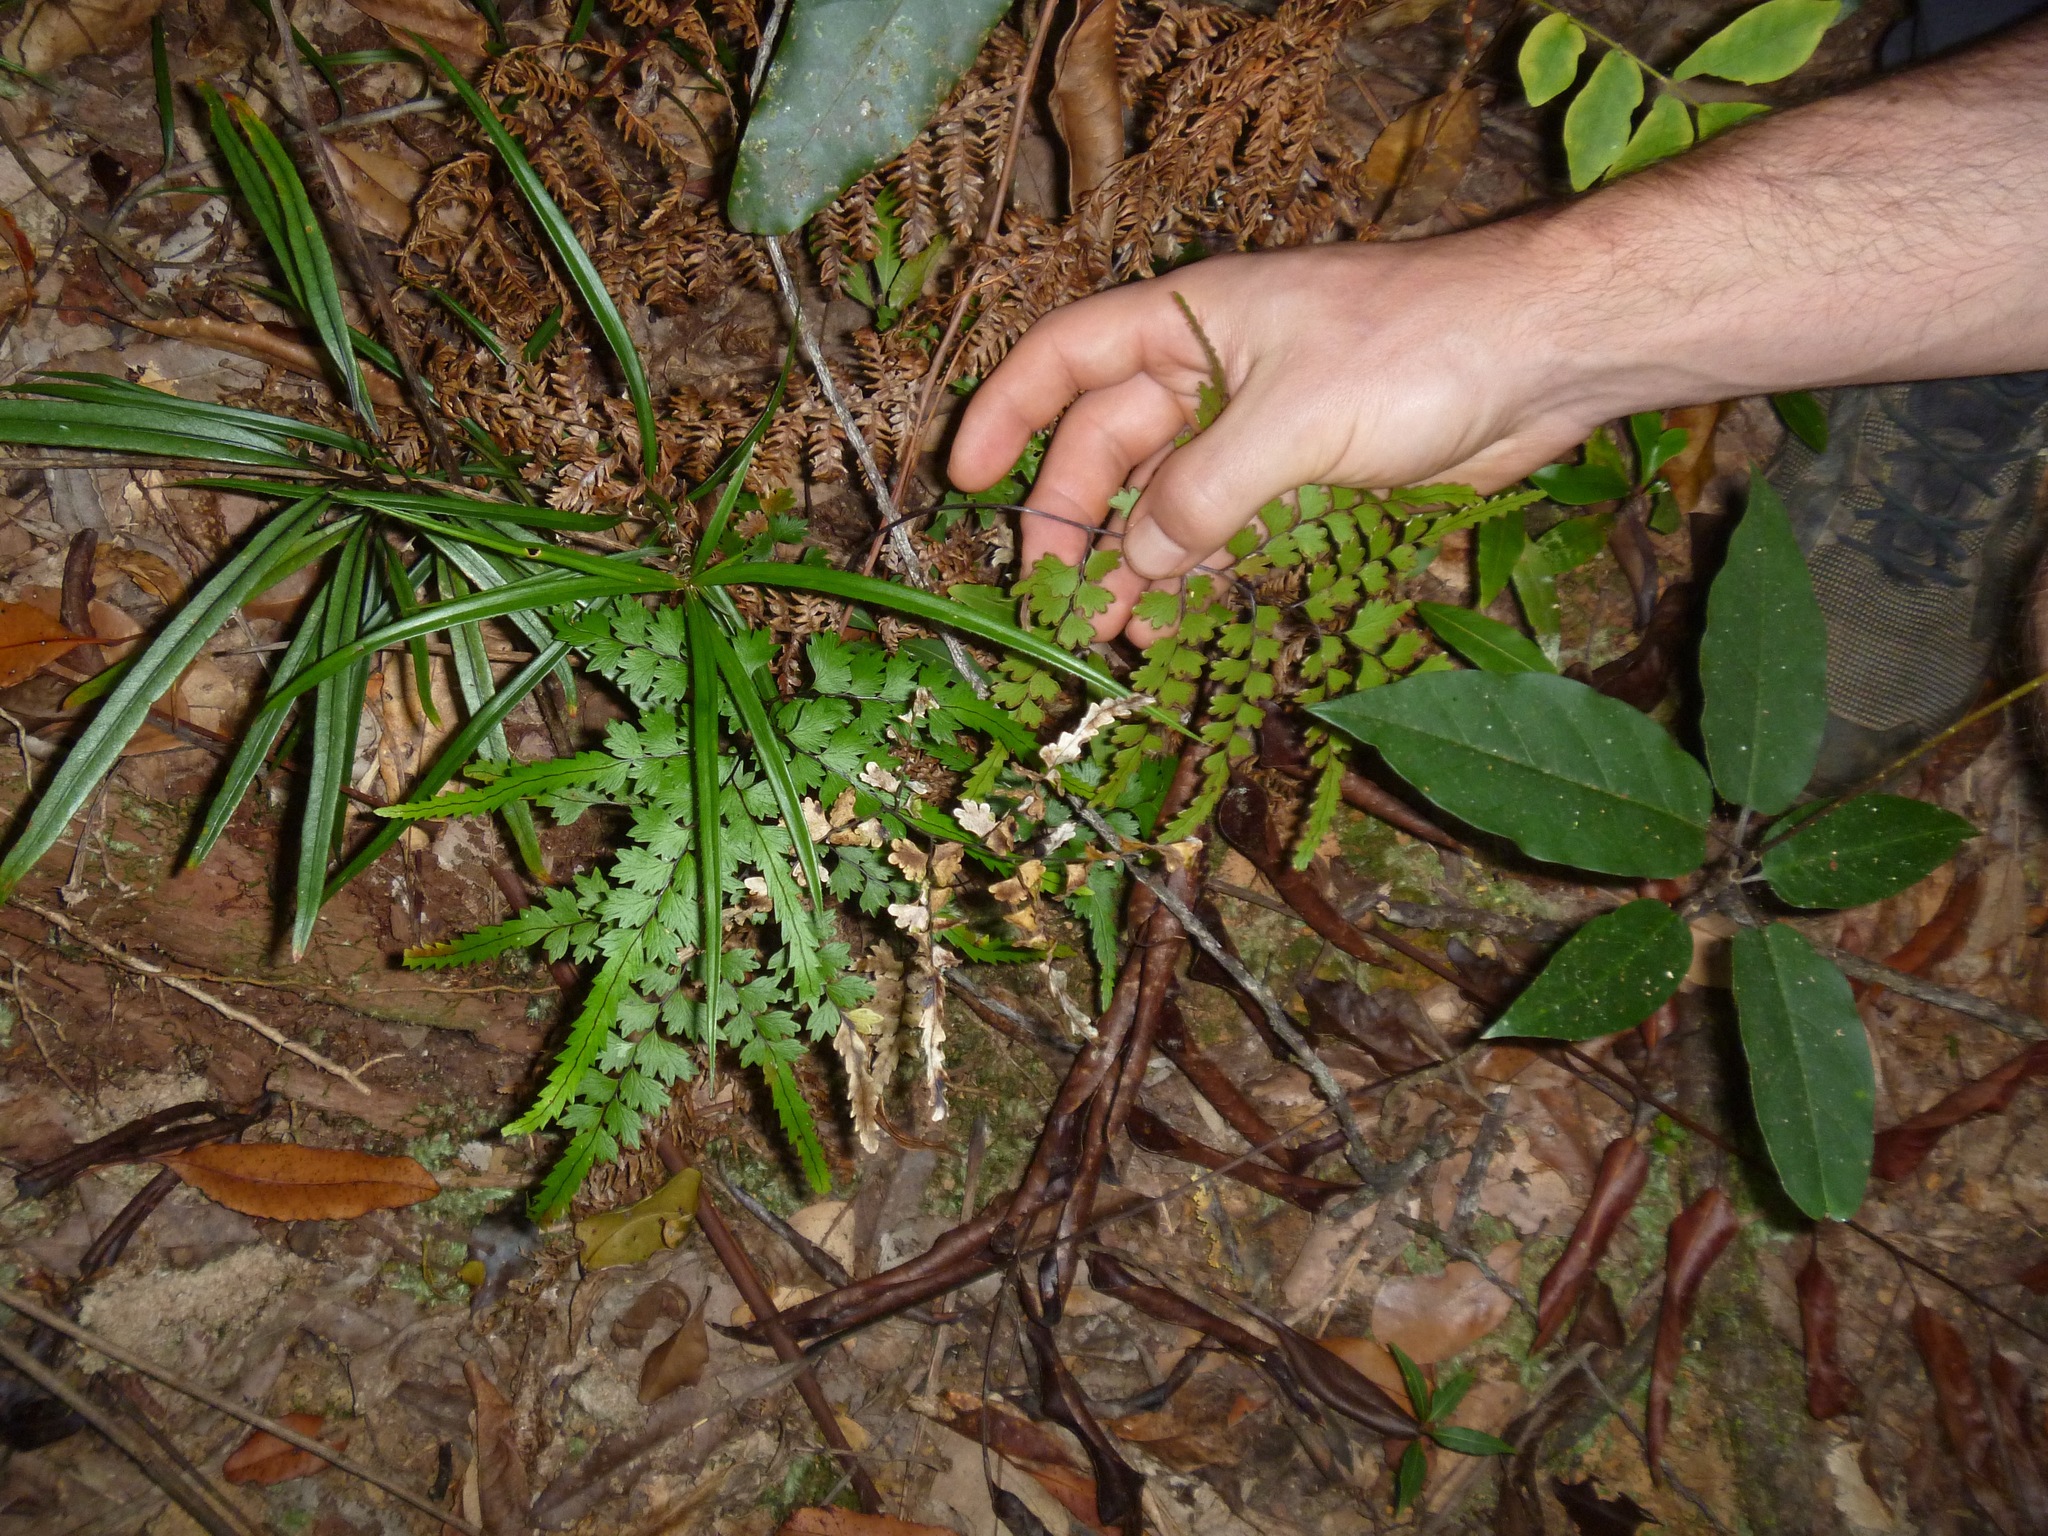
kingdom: Plantae
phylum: Tracheophyta
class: Polypodiopsida
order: Polypodiales
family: Lindsaeaceae
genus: Lindsaea
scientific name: Lindsaea prolongata
